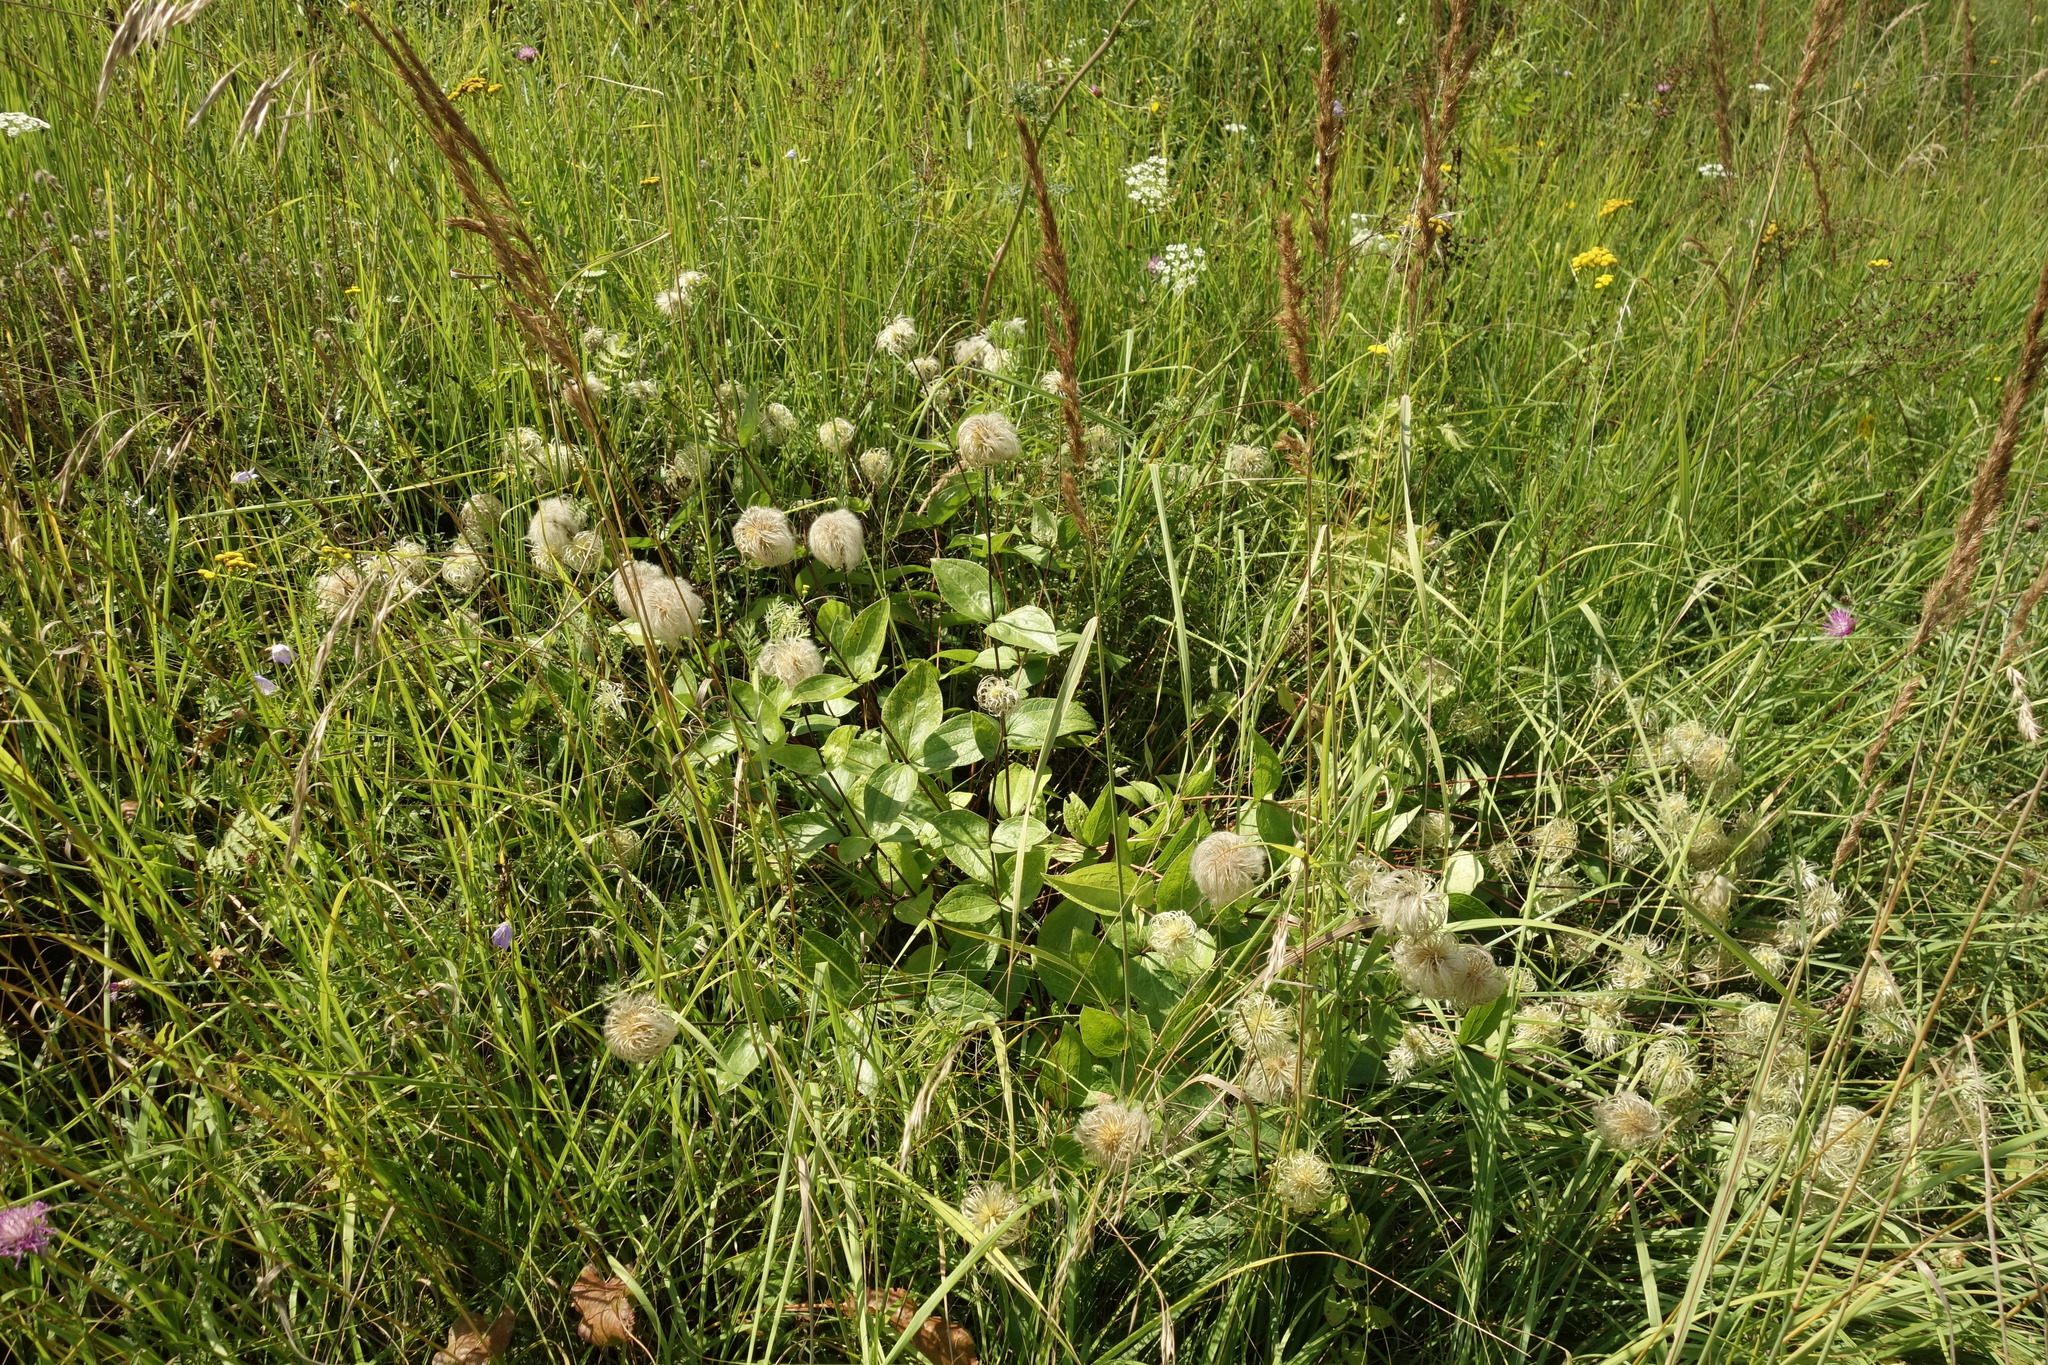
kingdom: Plantae
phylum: Tracheophyta
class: Magnoliopsida
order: Ranunculales
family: Ranunculaceae
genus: Clematis
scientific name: Clematis integrifolia
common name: Solitary clematis
